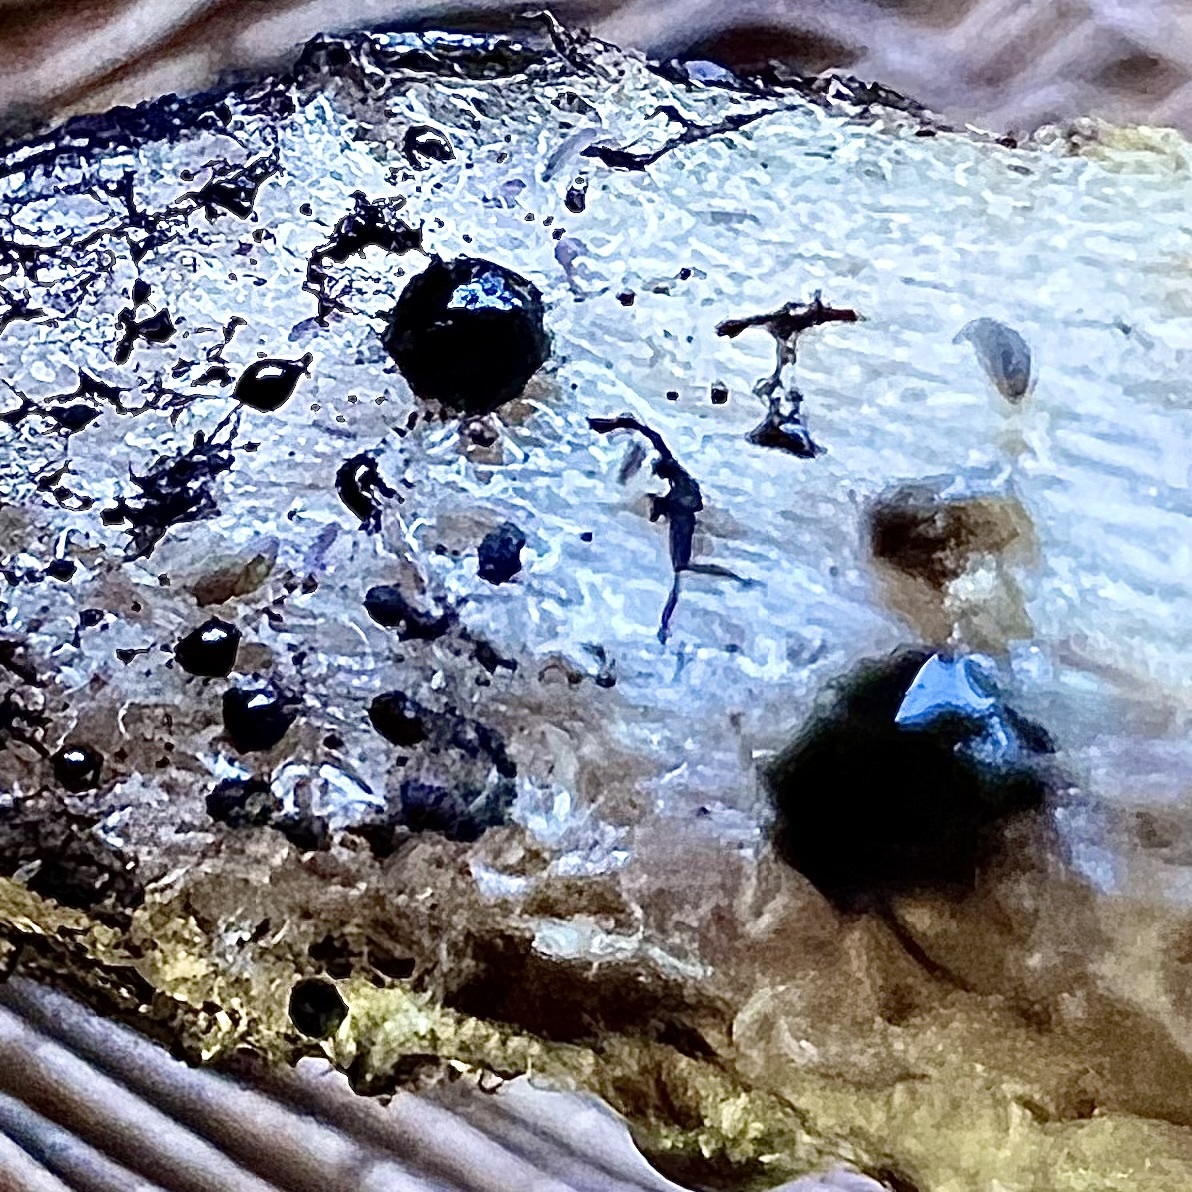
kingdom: Fungi
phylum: Basidiomycota
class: Agaricomycetes
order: Agaricales
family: Psathyrellaceae
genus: Lacrymaria
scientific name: Lacrymaria lacrymabunda
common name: Weeping widow
